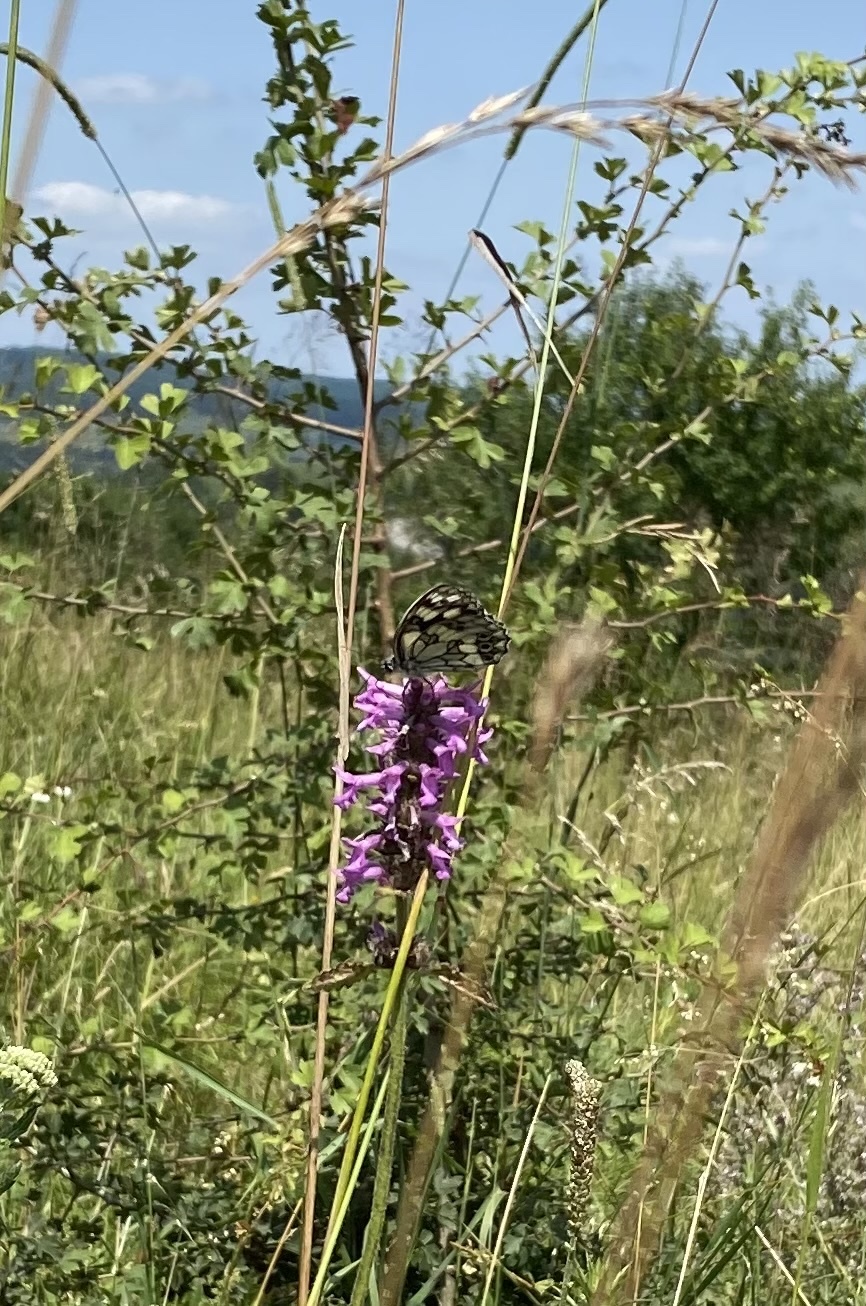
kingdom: Animalia
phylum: Arthropoda
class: Insecta
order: Lepidoptera
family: Nymphalidae
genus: Melanargia
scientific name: Melanargia galathea
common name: Marbled white
